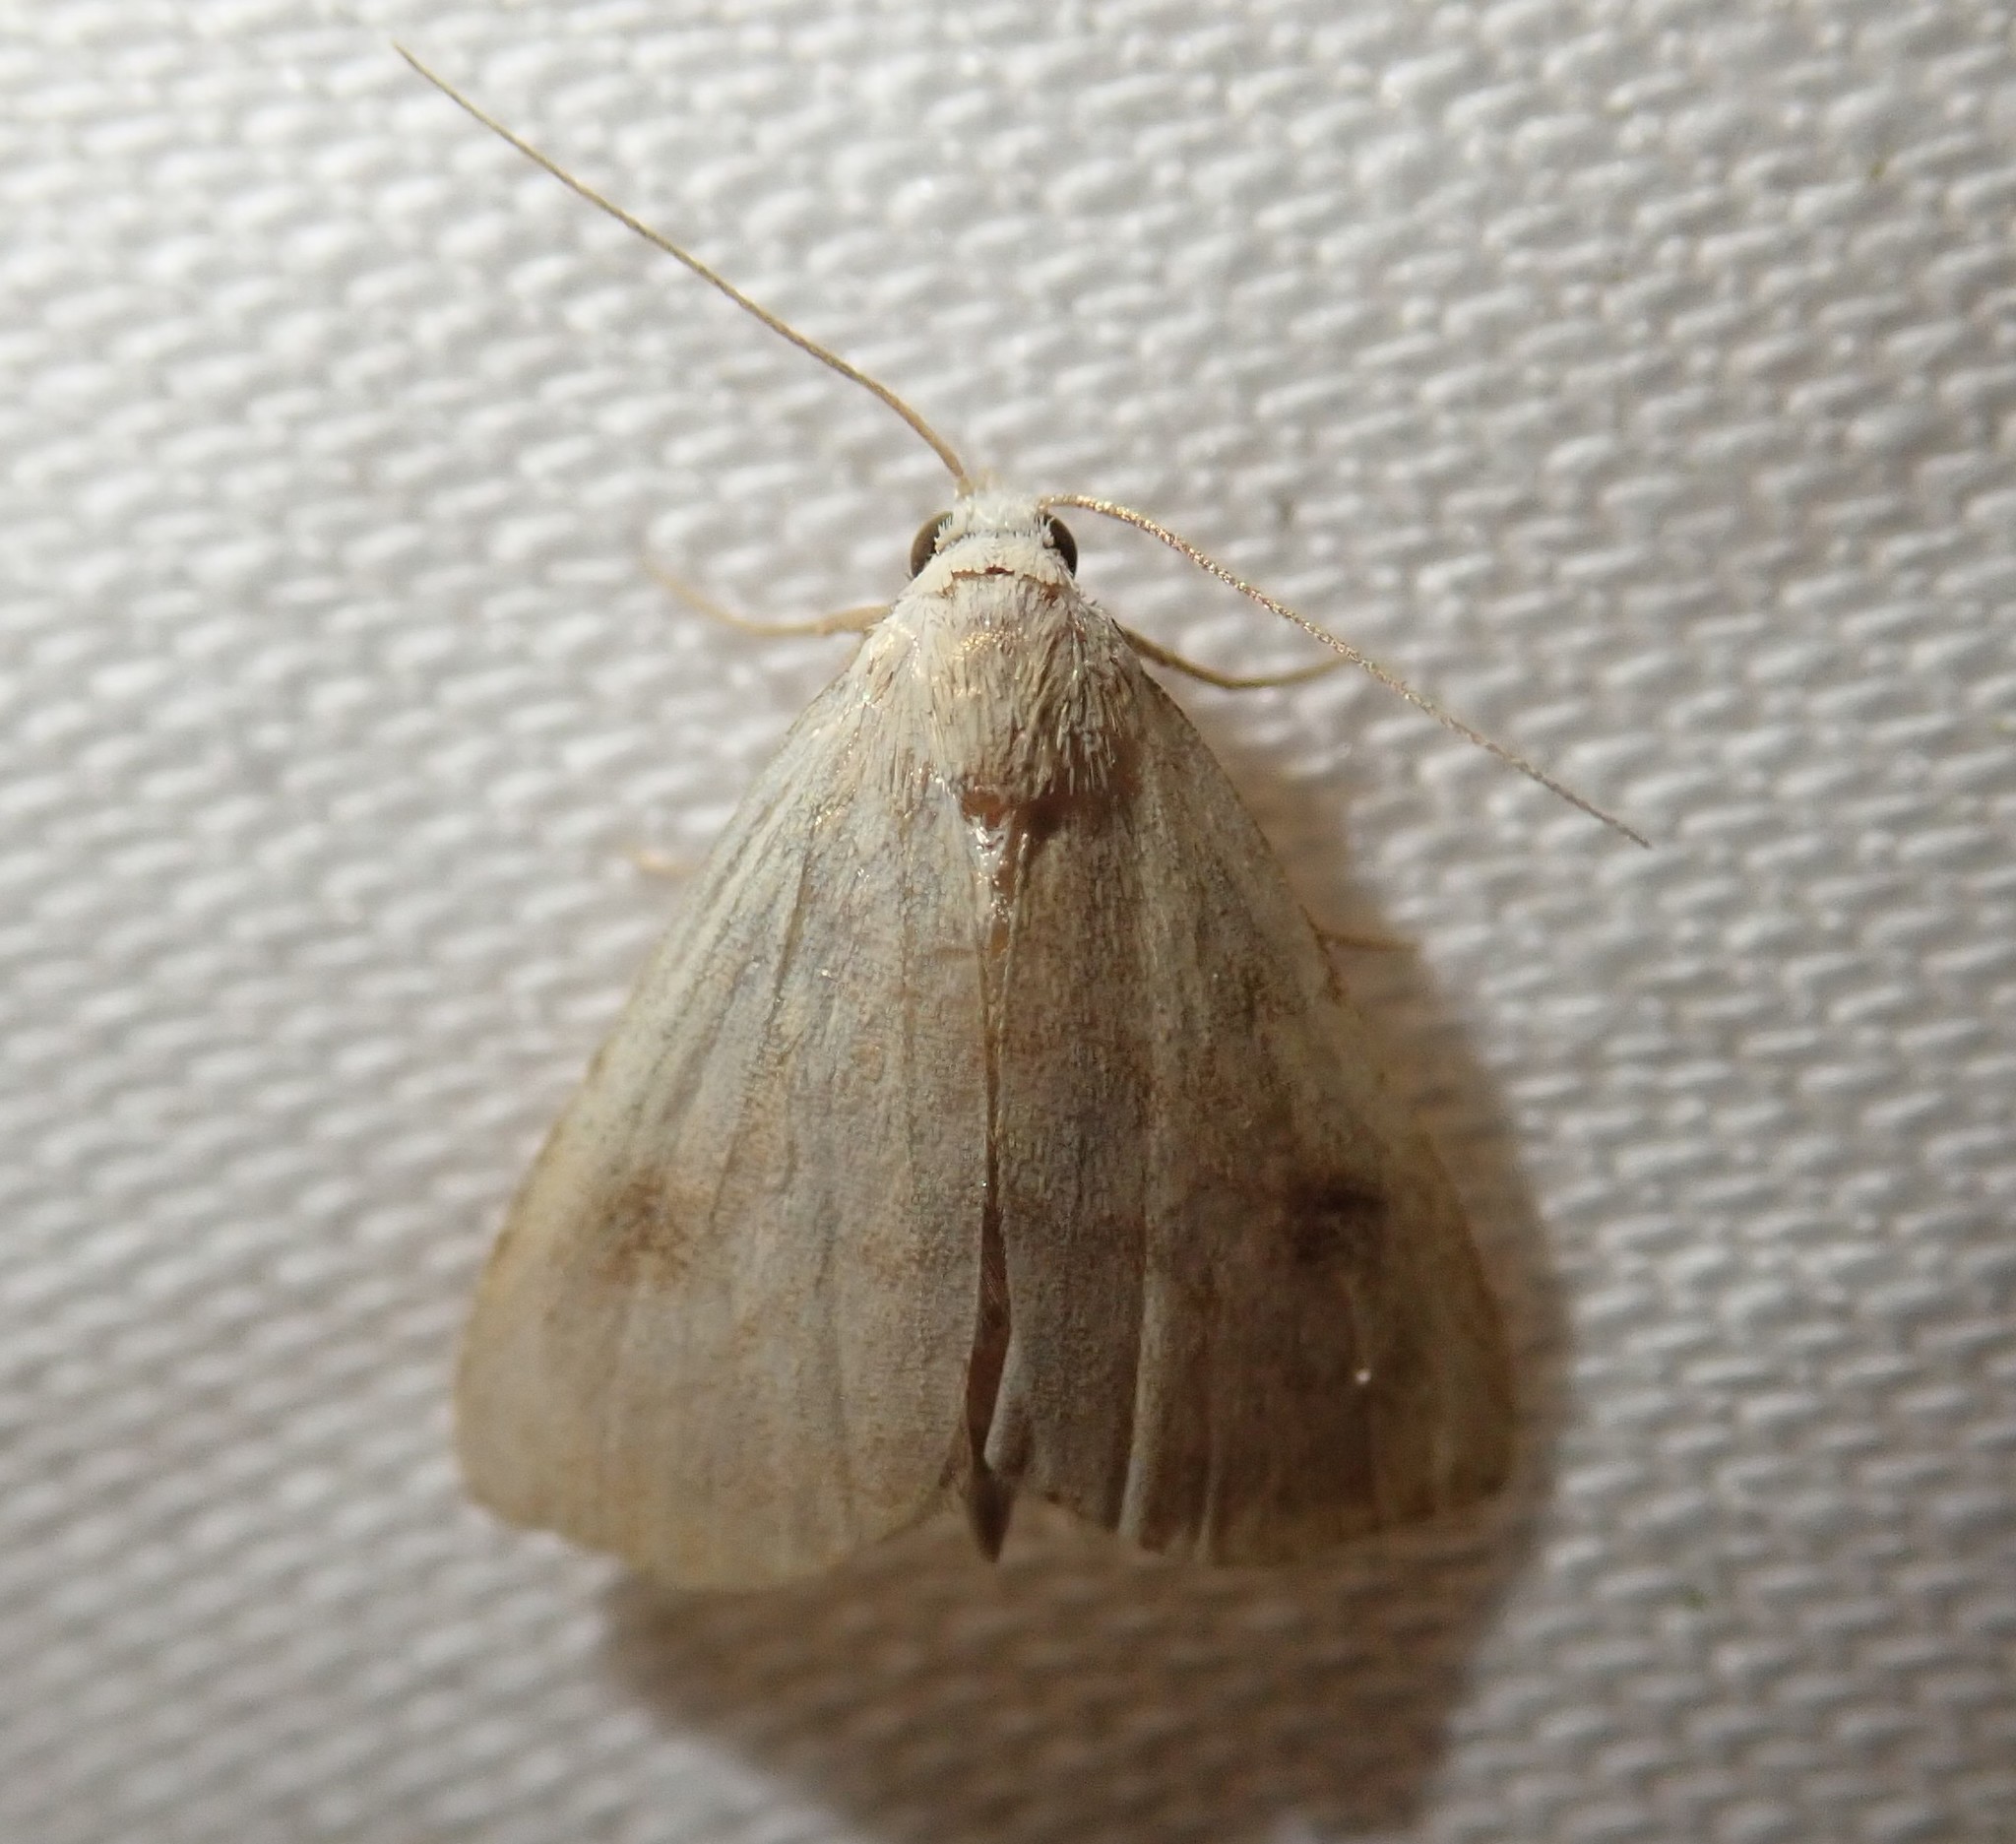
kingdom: Animalia
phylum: Arthropoda
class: Insecta
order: Lepidoptera
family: Erebidae
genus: Rivula
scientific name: Rivula sericealis
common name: Straw dot
